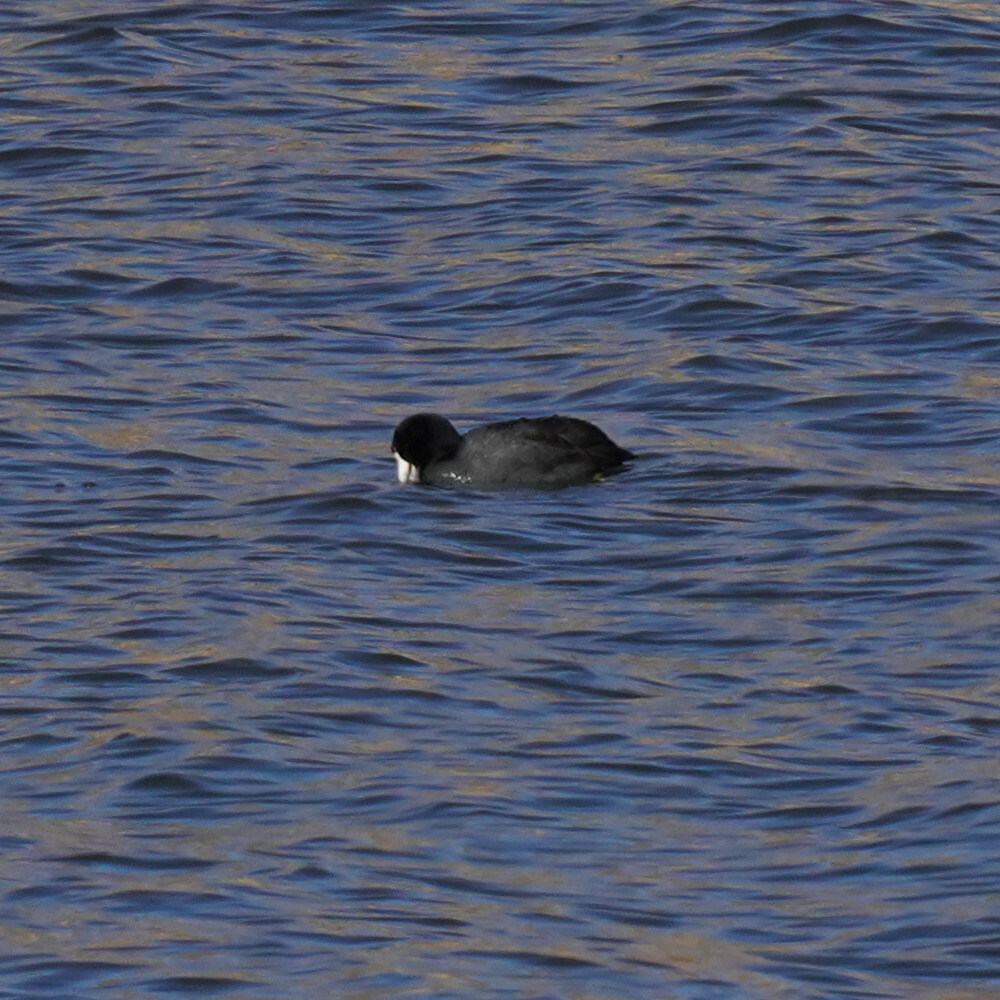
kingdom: Animalia
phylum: Chordata
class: Aves
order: Gruiformes
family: Rallidae
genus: Fulica
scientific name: Fulica americana
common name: American coot
